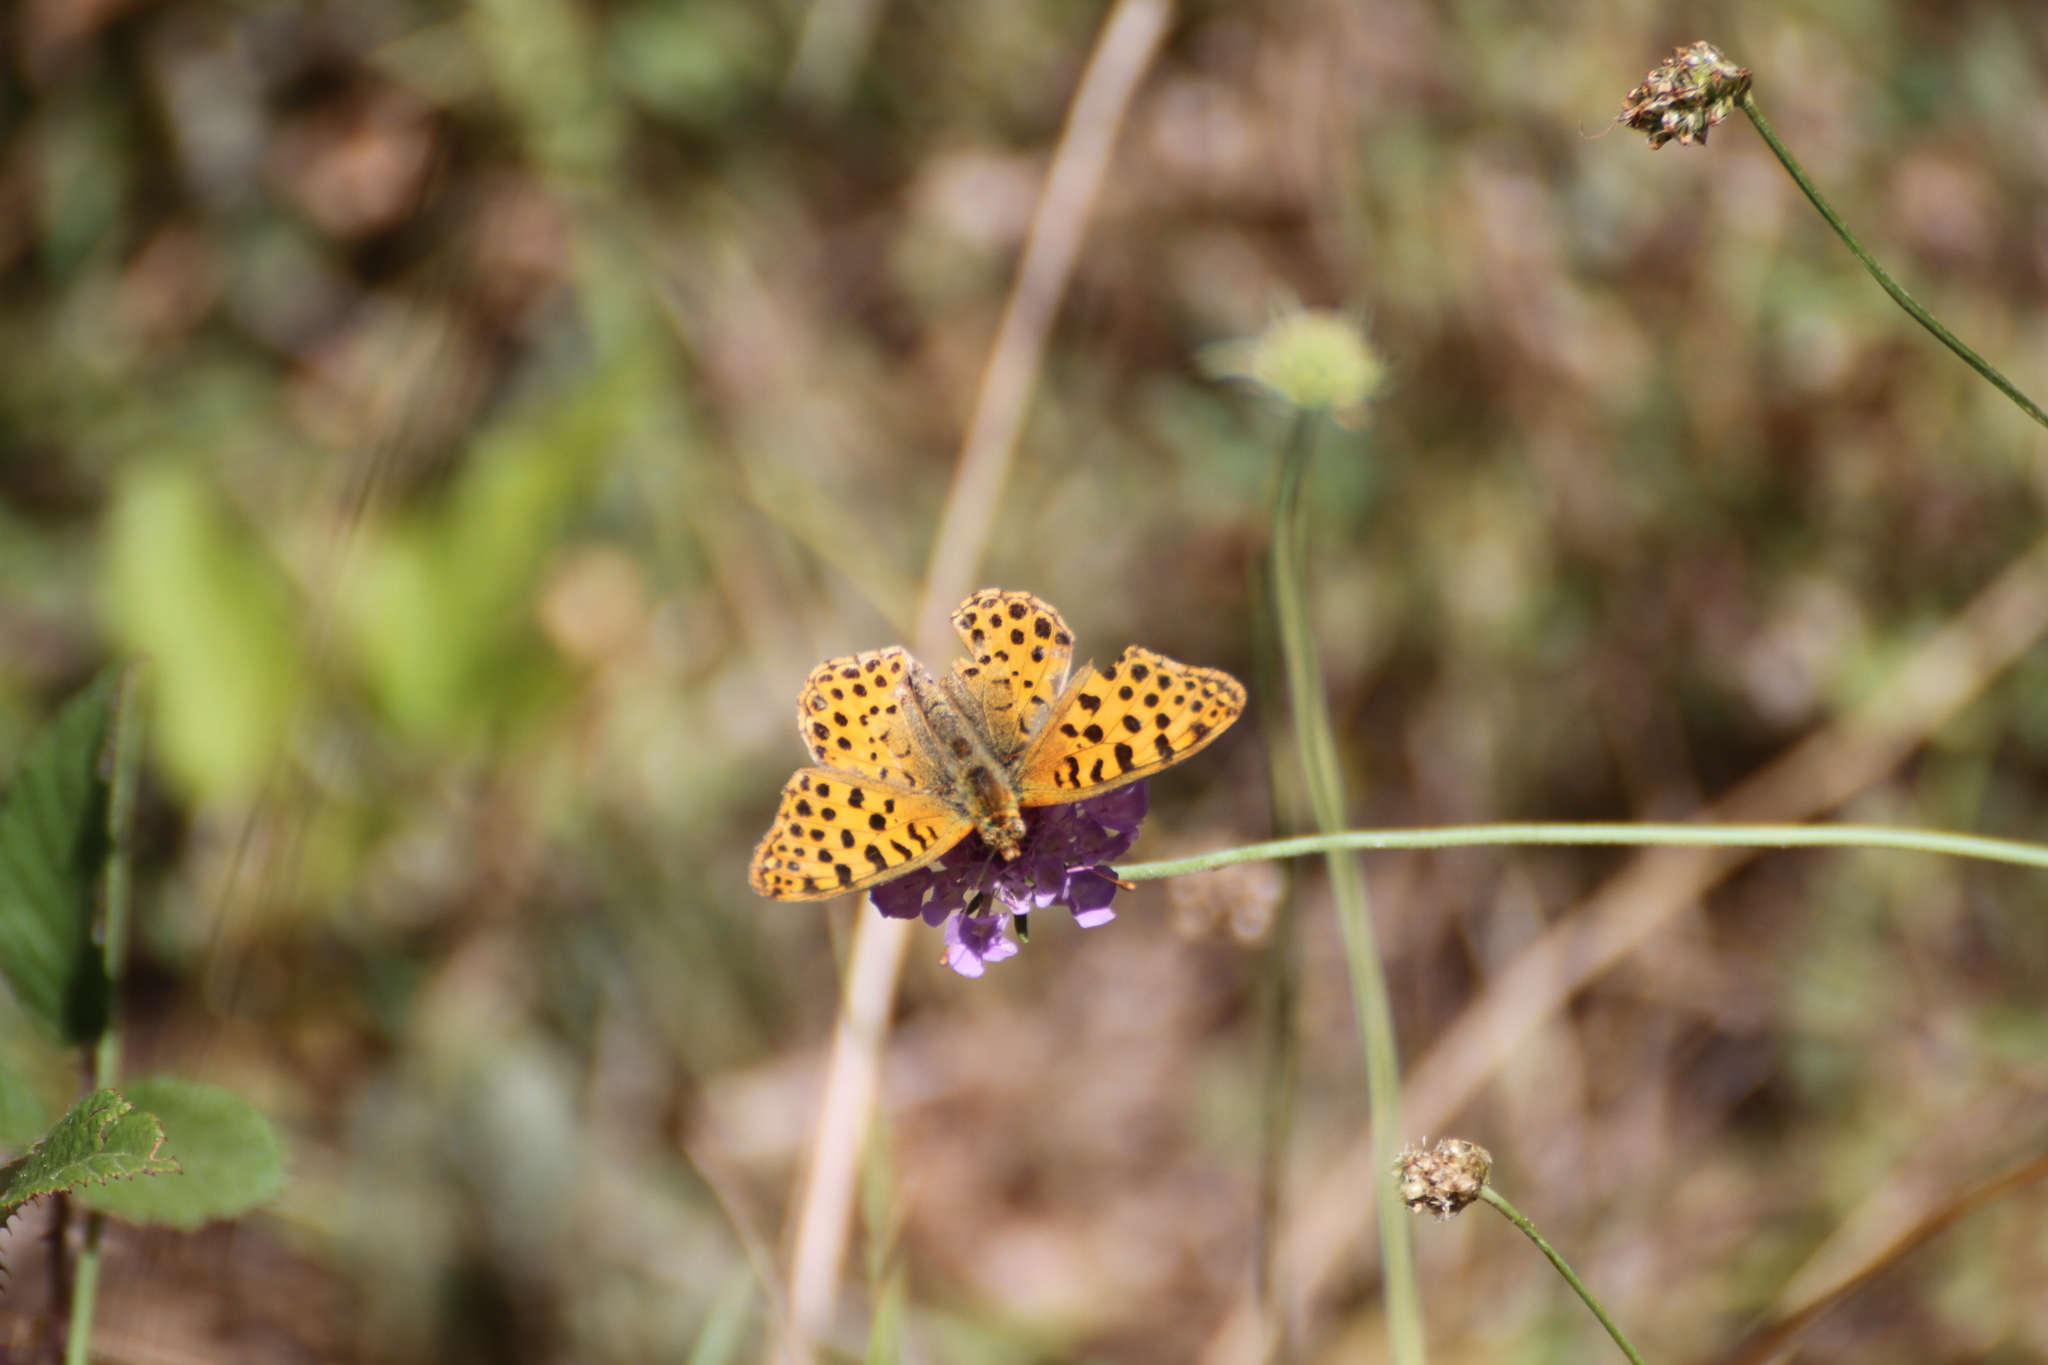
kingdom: Animalia
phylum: Arthropoda
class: Insecta
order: Lepidoptera
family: Nymphalidae
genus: Issoria
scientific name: Issoria lathonia
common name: Queen of spain fritillary
